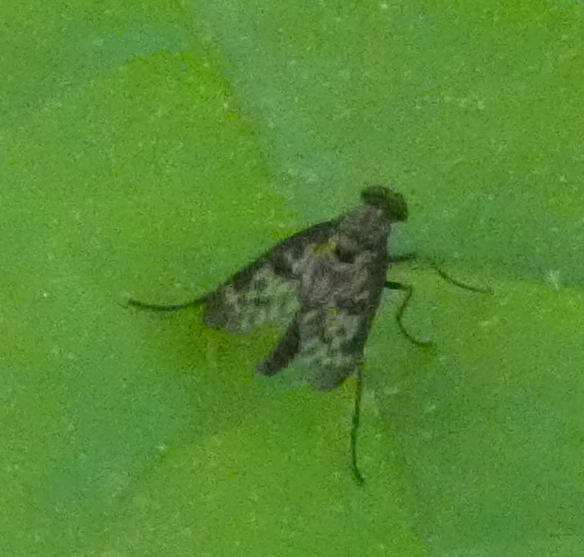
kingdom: Animalia
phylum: Arthropoda
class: Insecta
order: Diptera
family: Rhagionidae
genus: Rhagio
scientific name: Rhagio punctipennis
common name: Lesser variegated snipe fly
